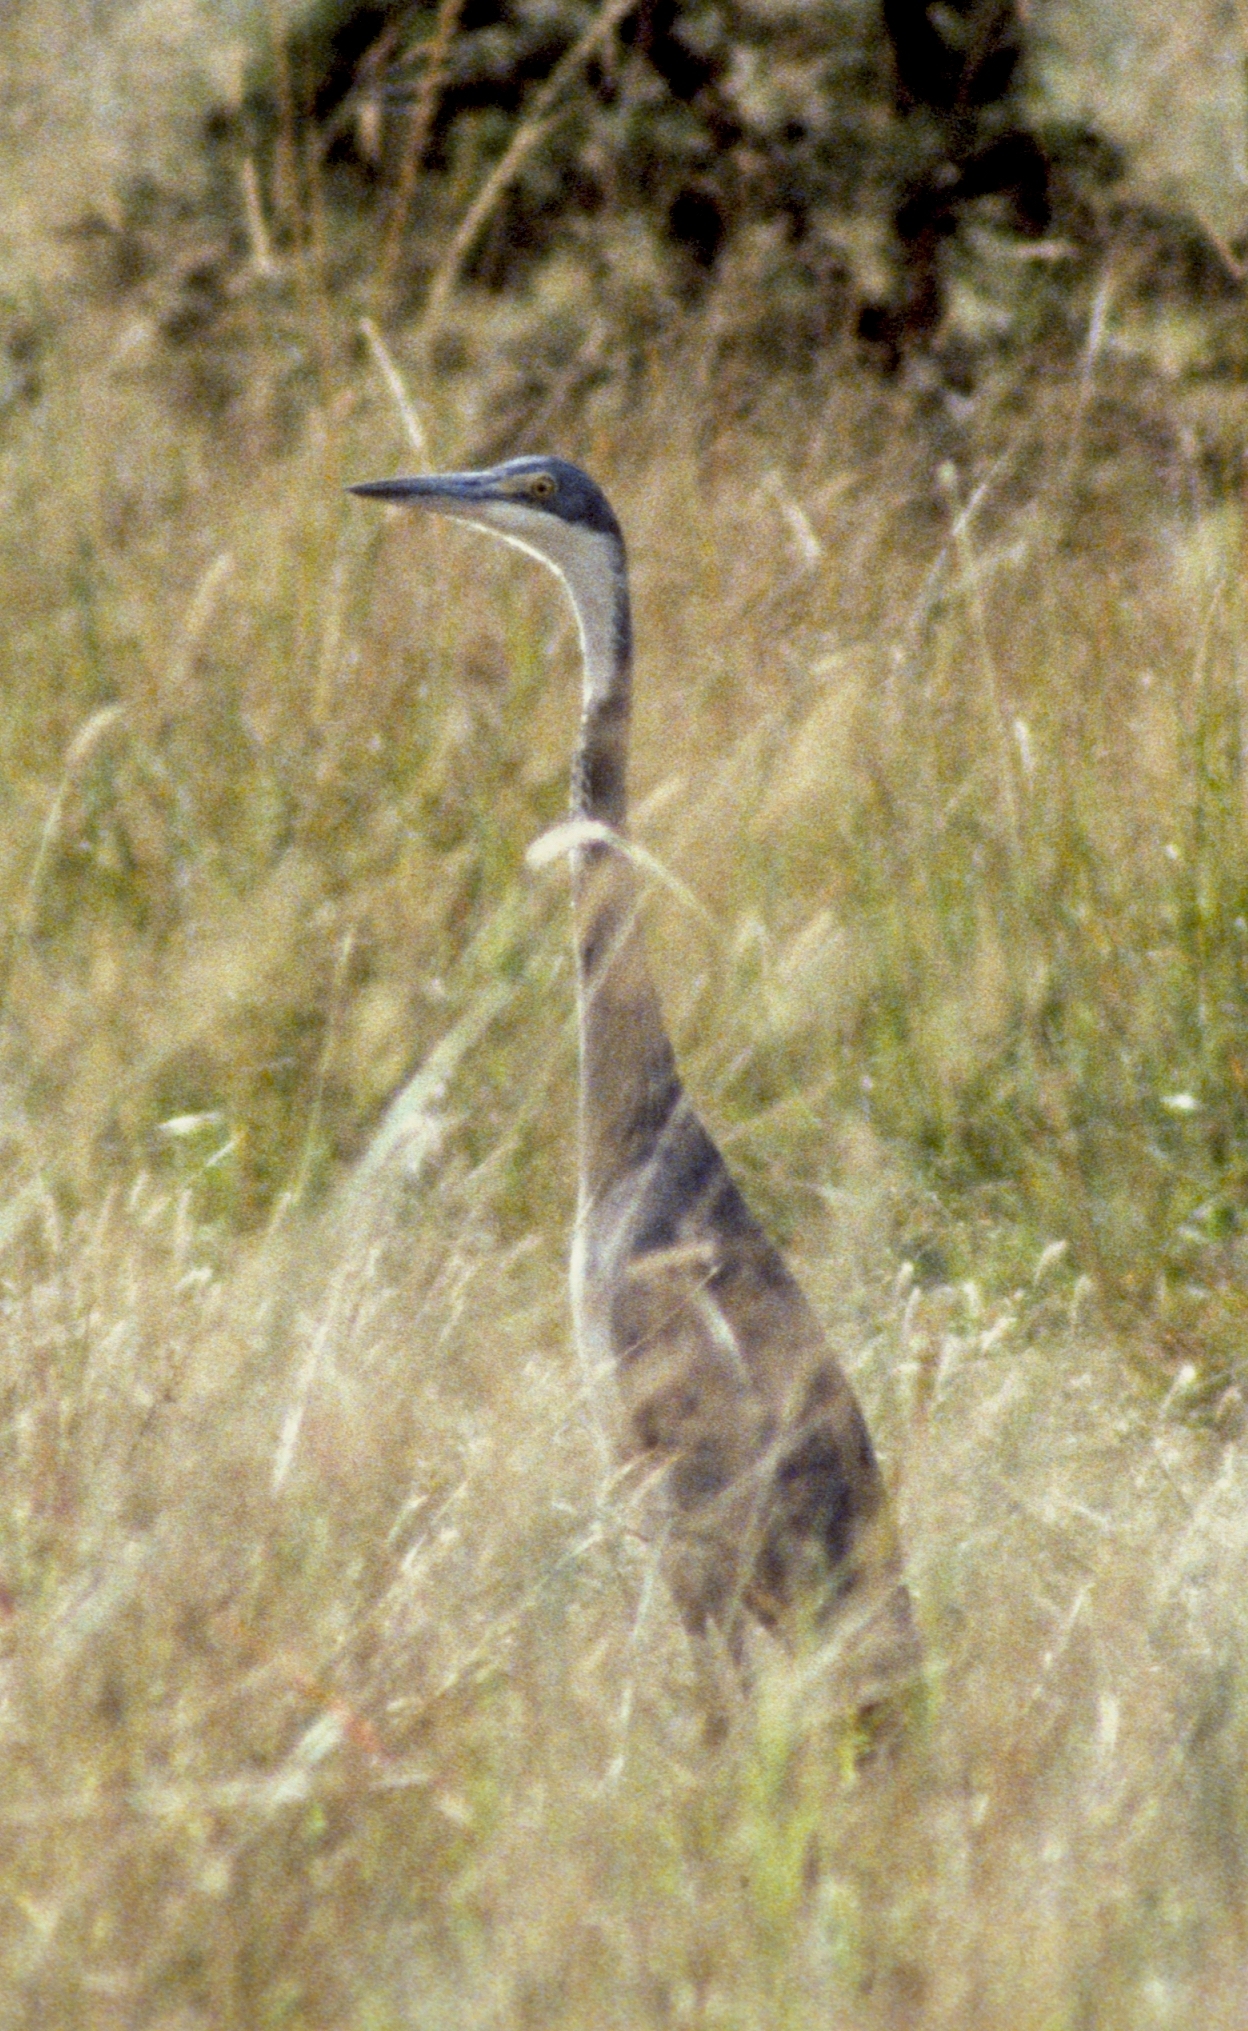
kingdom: Animalia
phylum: Chordata
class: Aves
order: Pelecaniformes
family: Ardeidae
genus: Ardea
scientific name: Ardea melanocephala
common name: Black-headed heron
